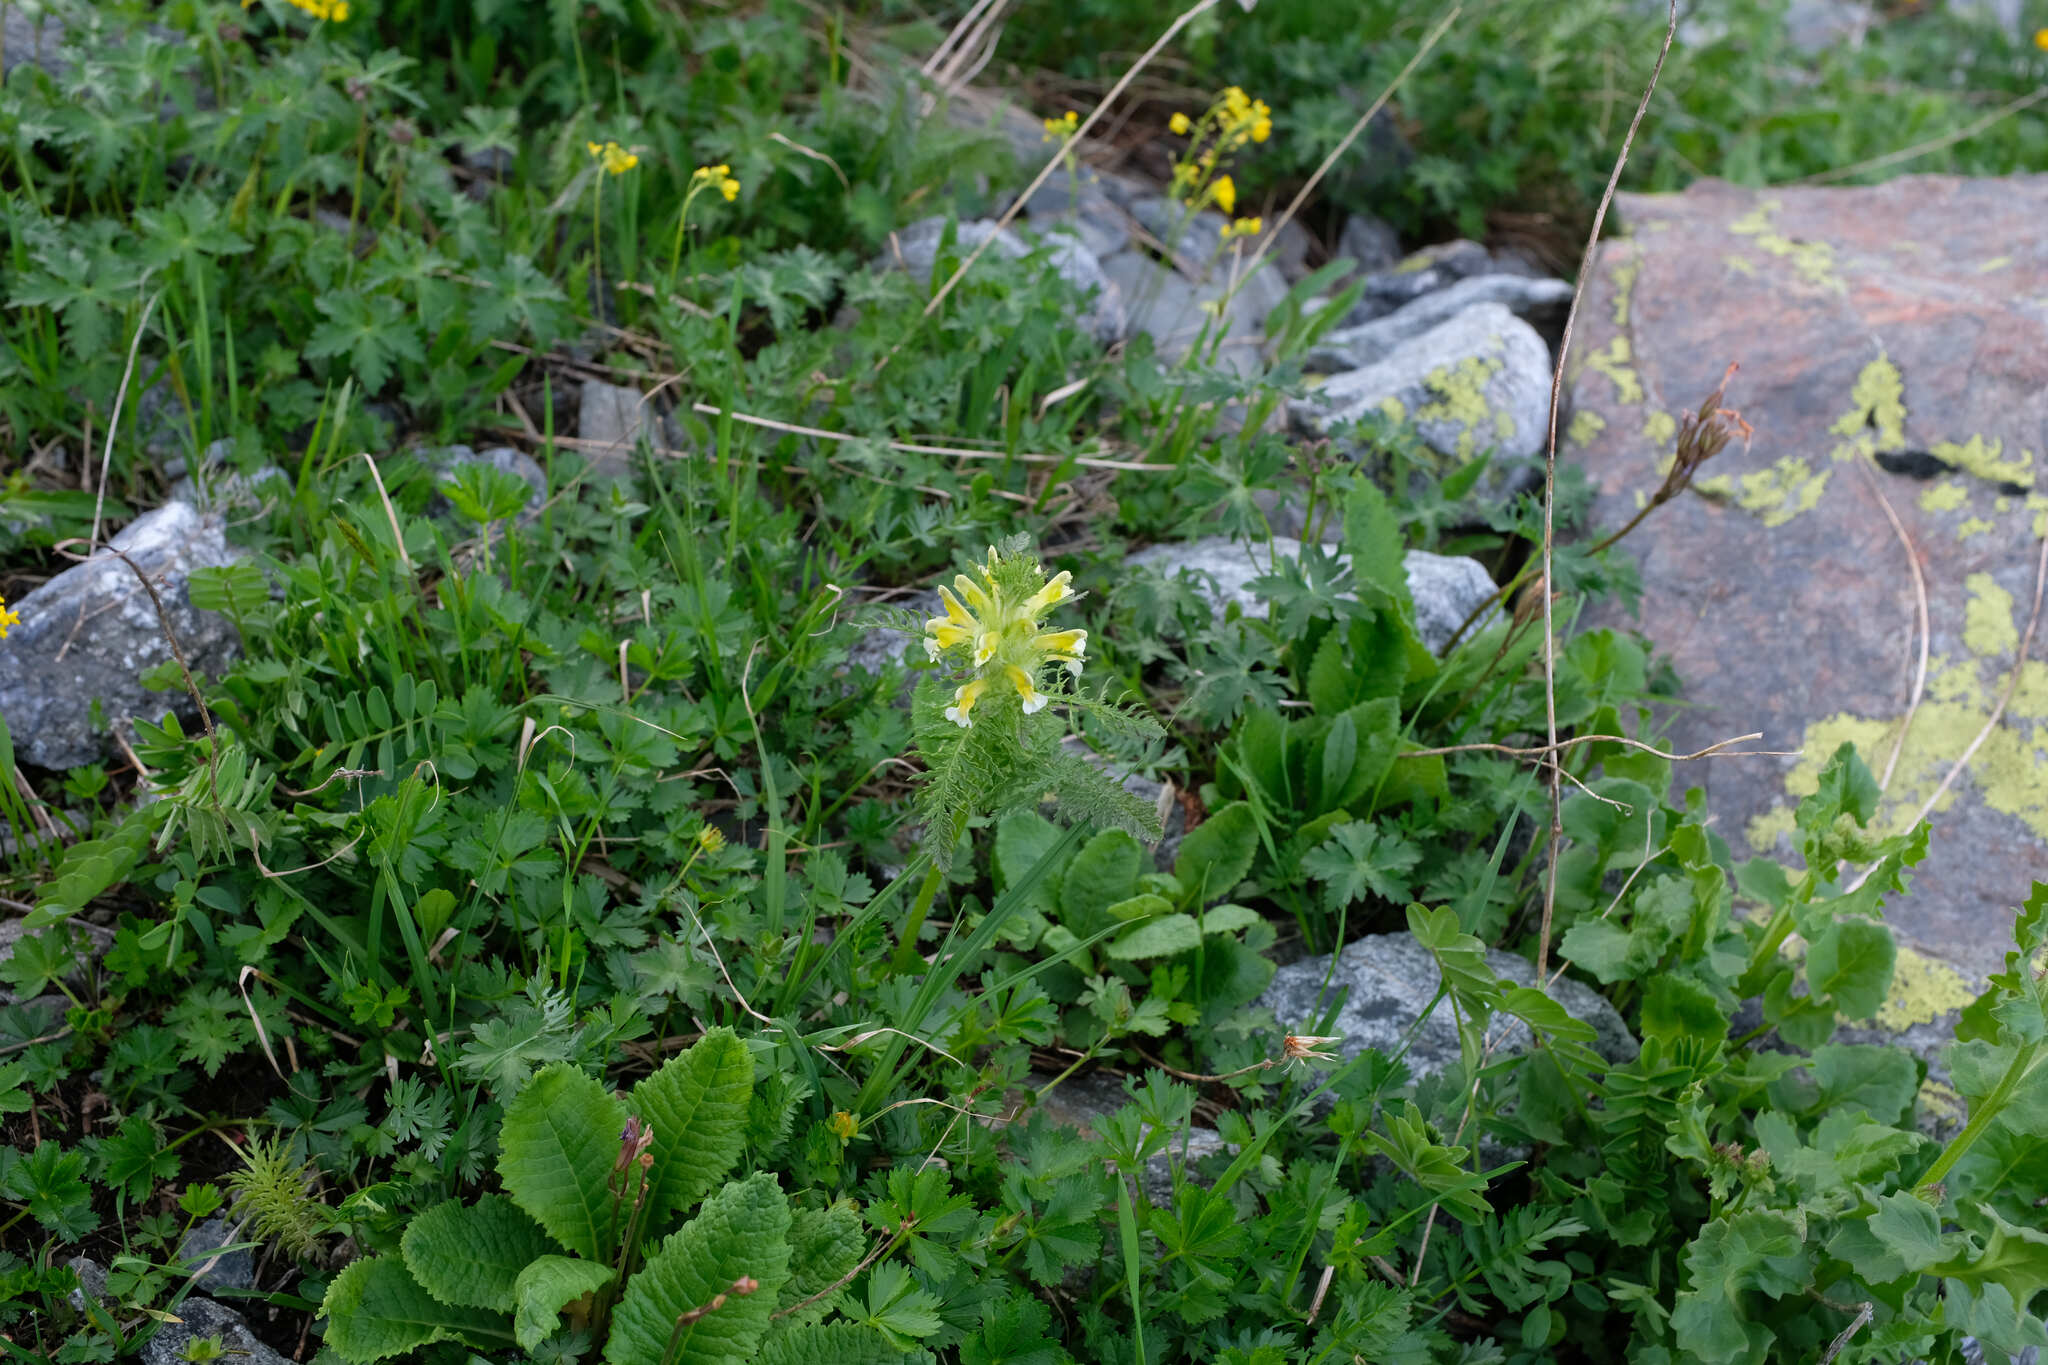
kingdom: Plantae
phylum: Tracheophyta
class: Magnoliopsida
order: Lamiales
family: Orobanchaceae
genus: Pedicularis
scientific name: Pedicularis condensata
